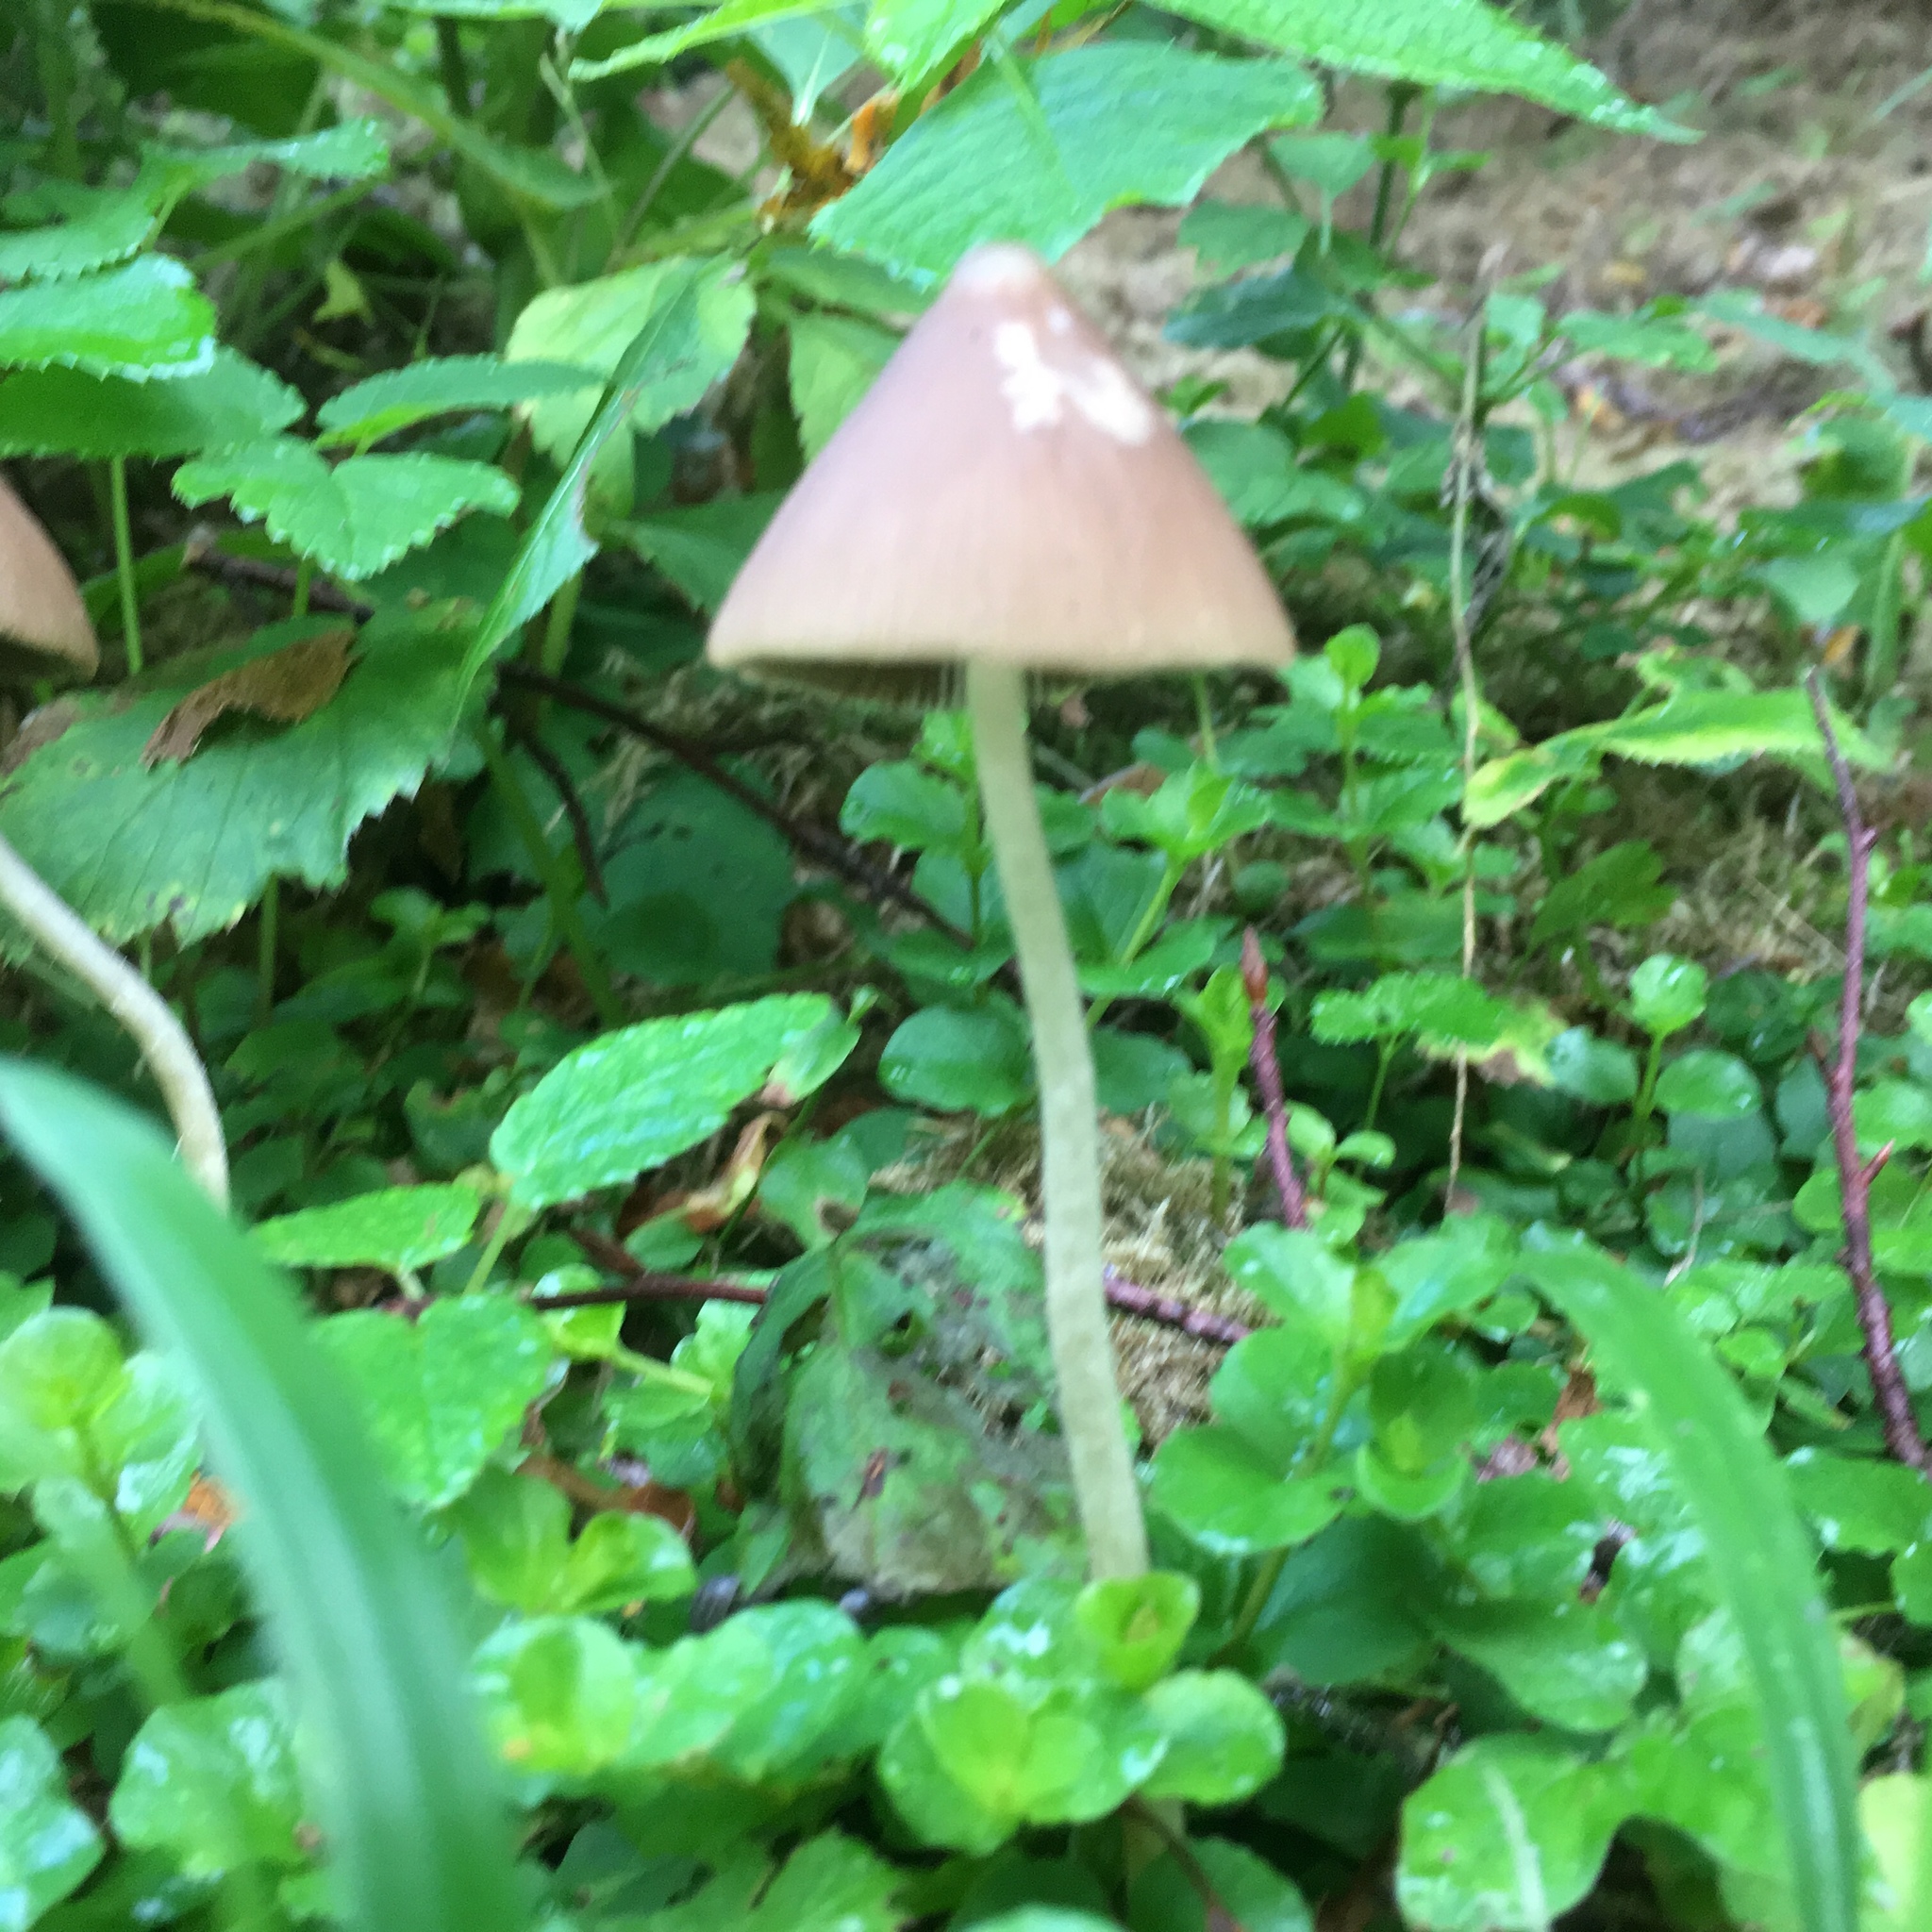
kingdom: Fungi
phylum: Basidiomycota
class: Agaricomycetes
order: Agaricales
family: Psathyrellaceae
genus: Parasola
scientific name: Parasola conopilea
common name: Conical brittlestem
